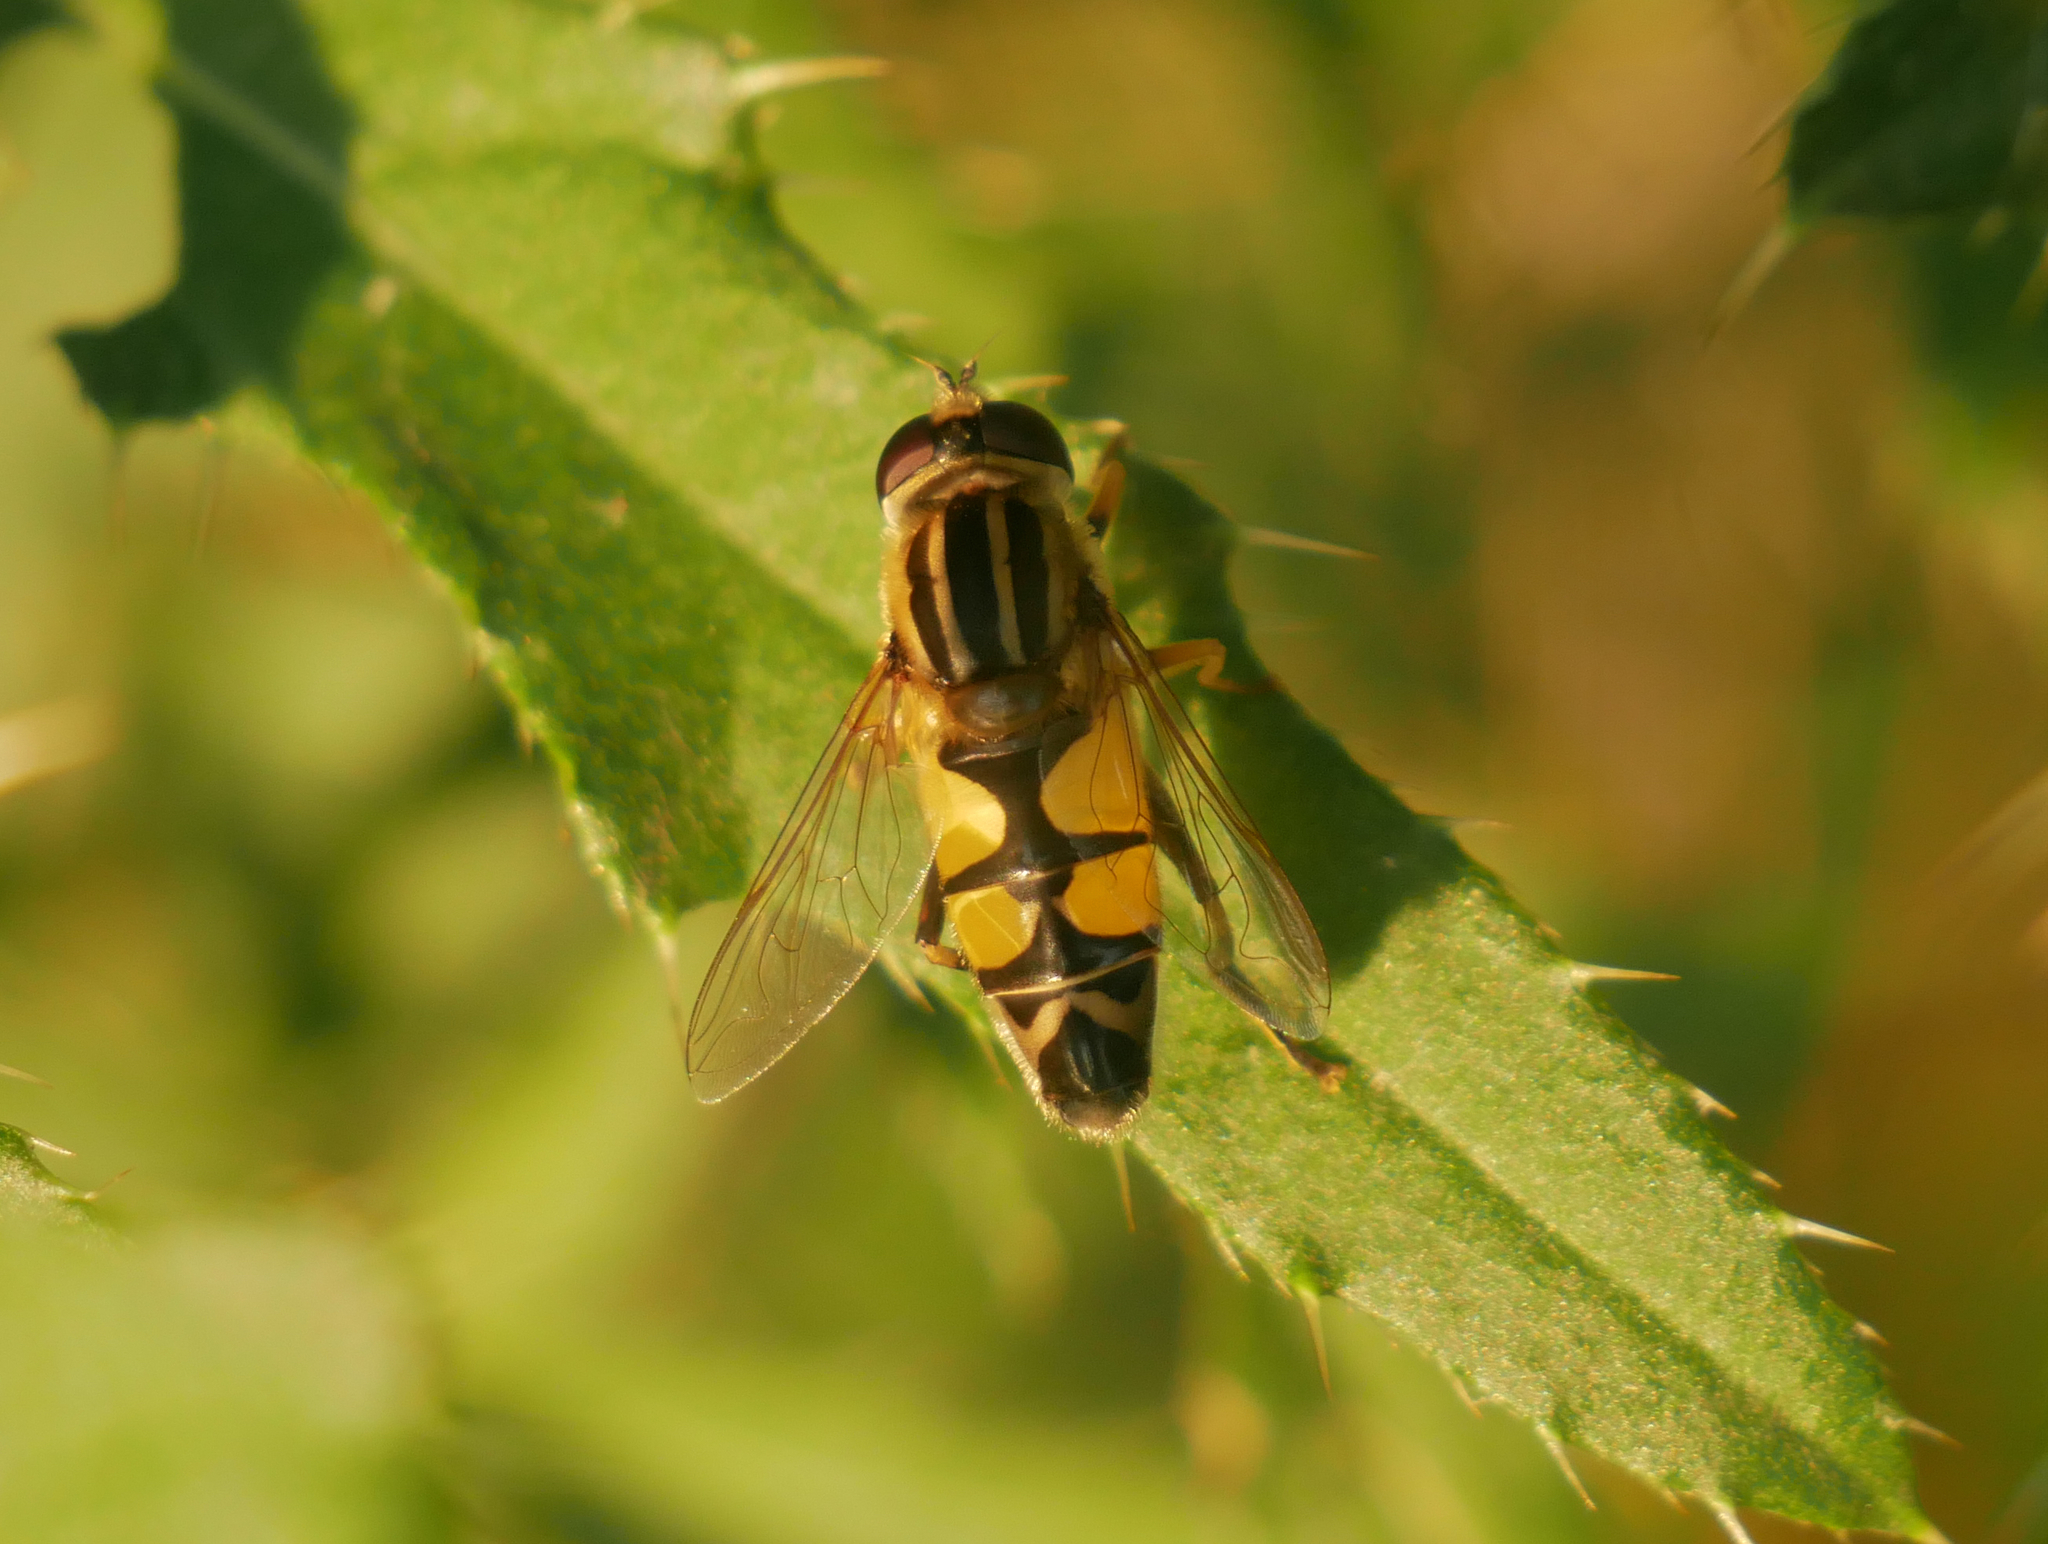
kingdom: Animalia
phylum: Arthropoda
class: Insecta
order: Diptera
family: Syrphidae
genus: Helophilus
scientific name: Helophilus trivittatus
